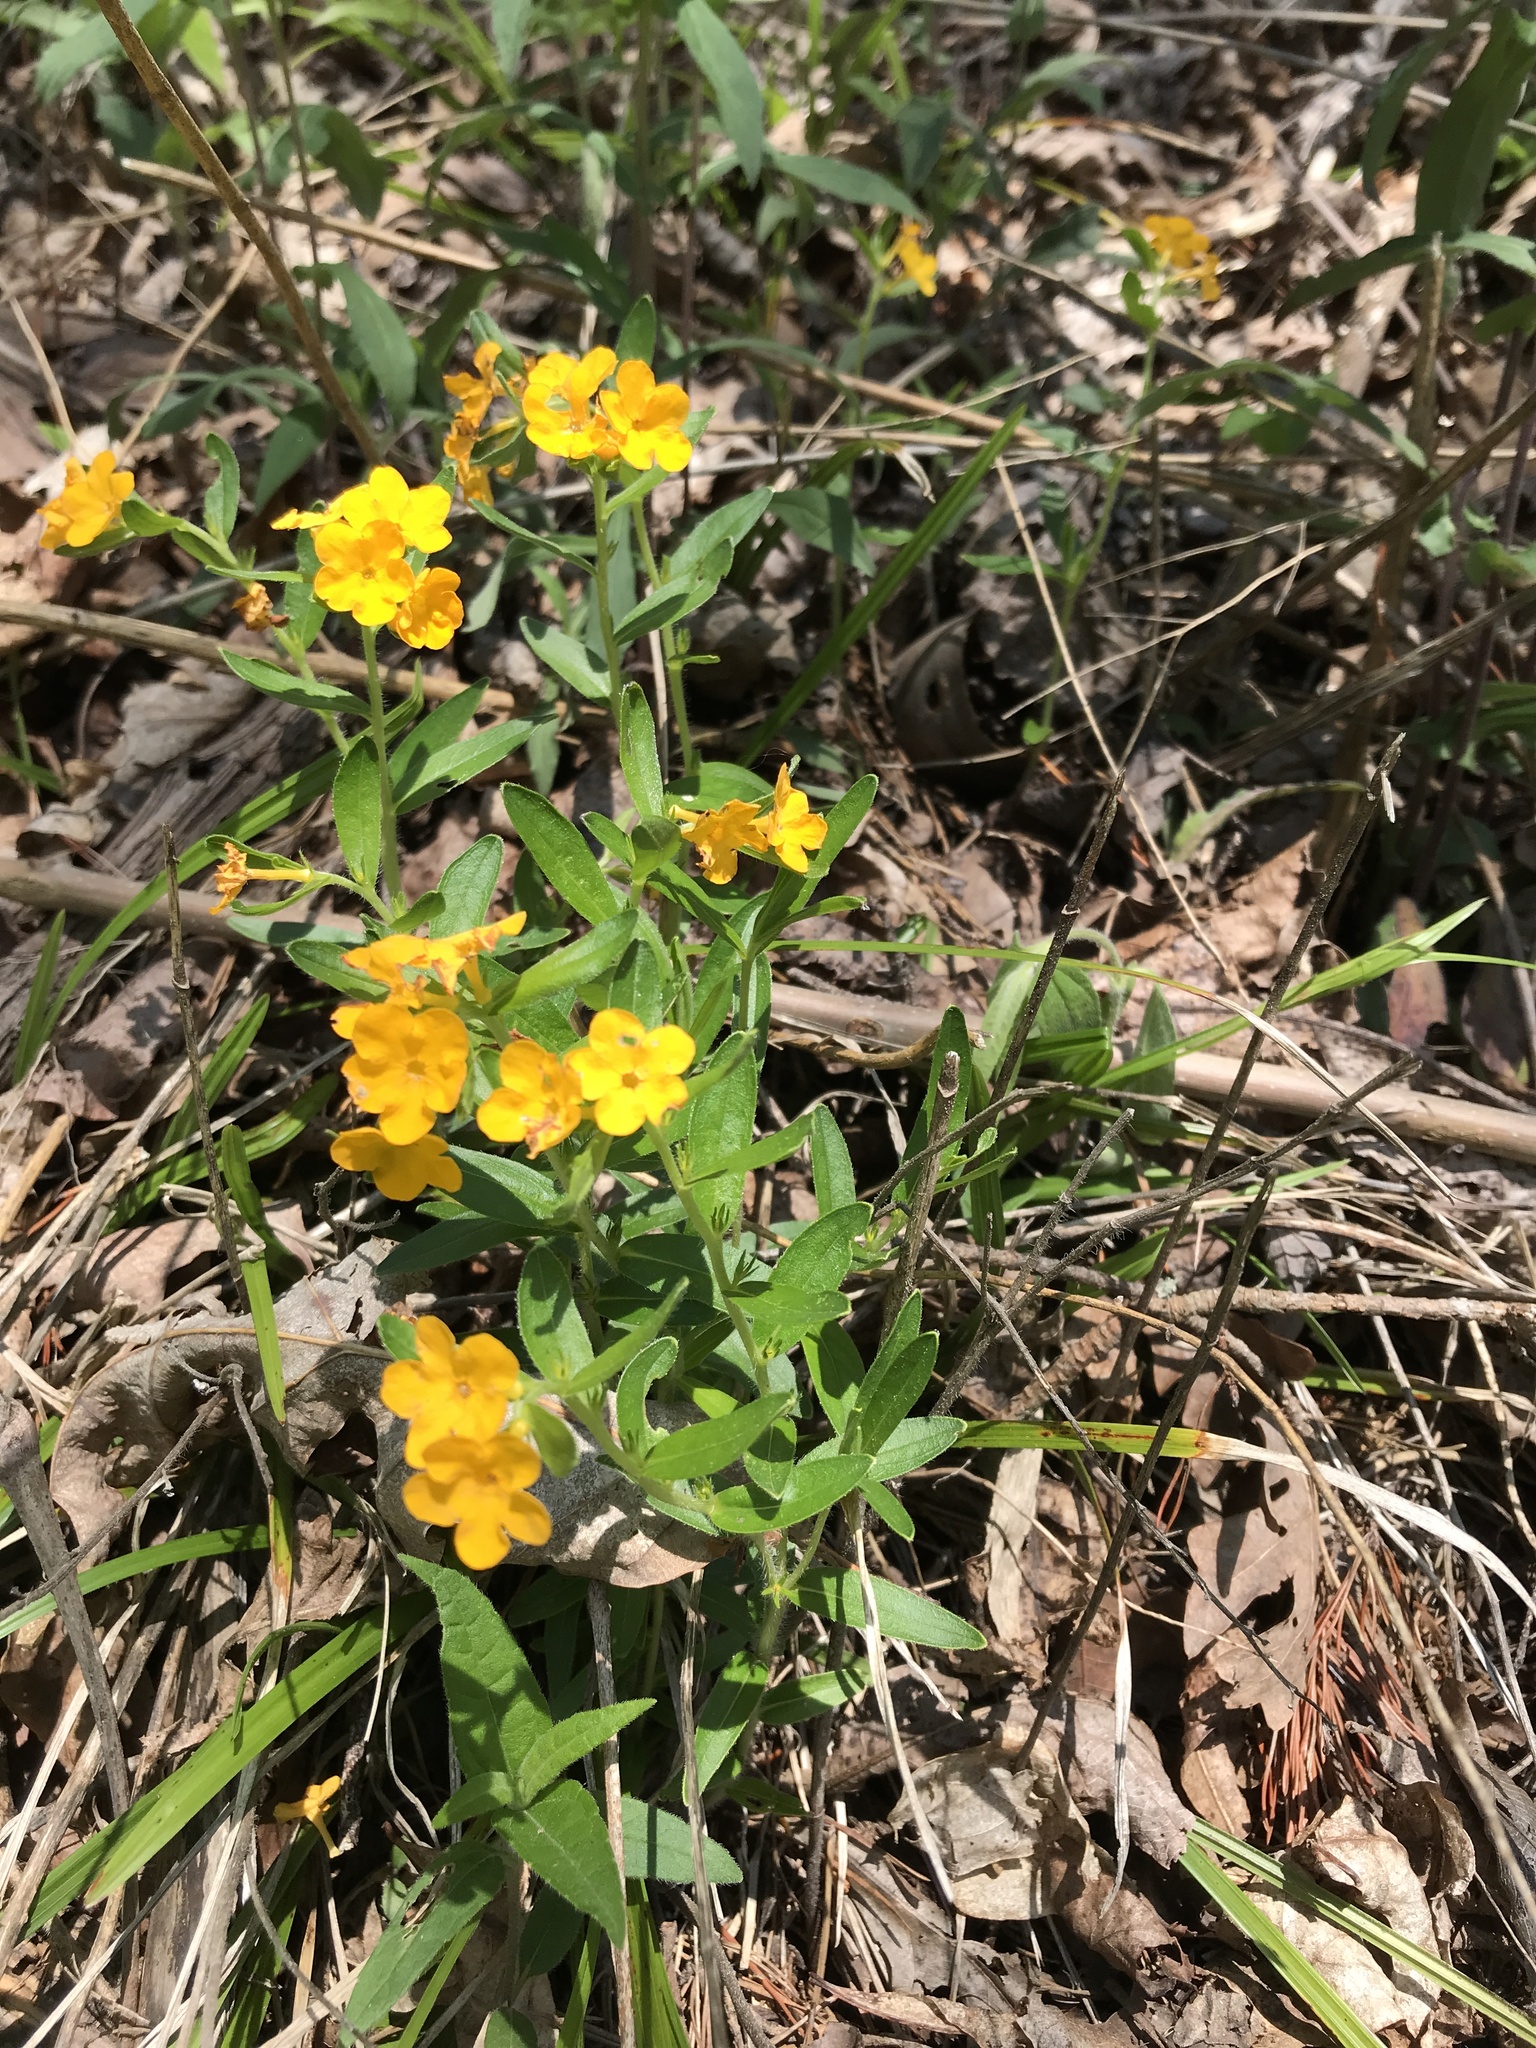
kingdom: Plantae
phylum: Tracheophyta
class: Magnoliopsida
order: Boraginales
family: Boraginaceae
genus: Lithospermum
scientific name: Lithospermum canescens
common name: Hoary puccoon
